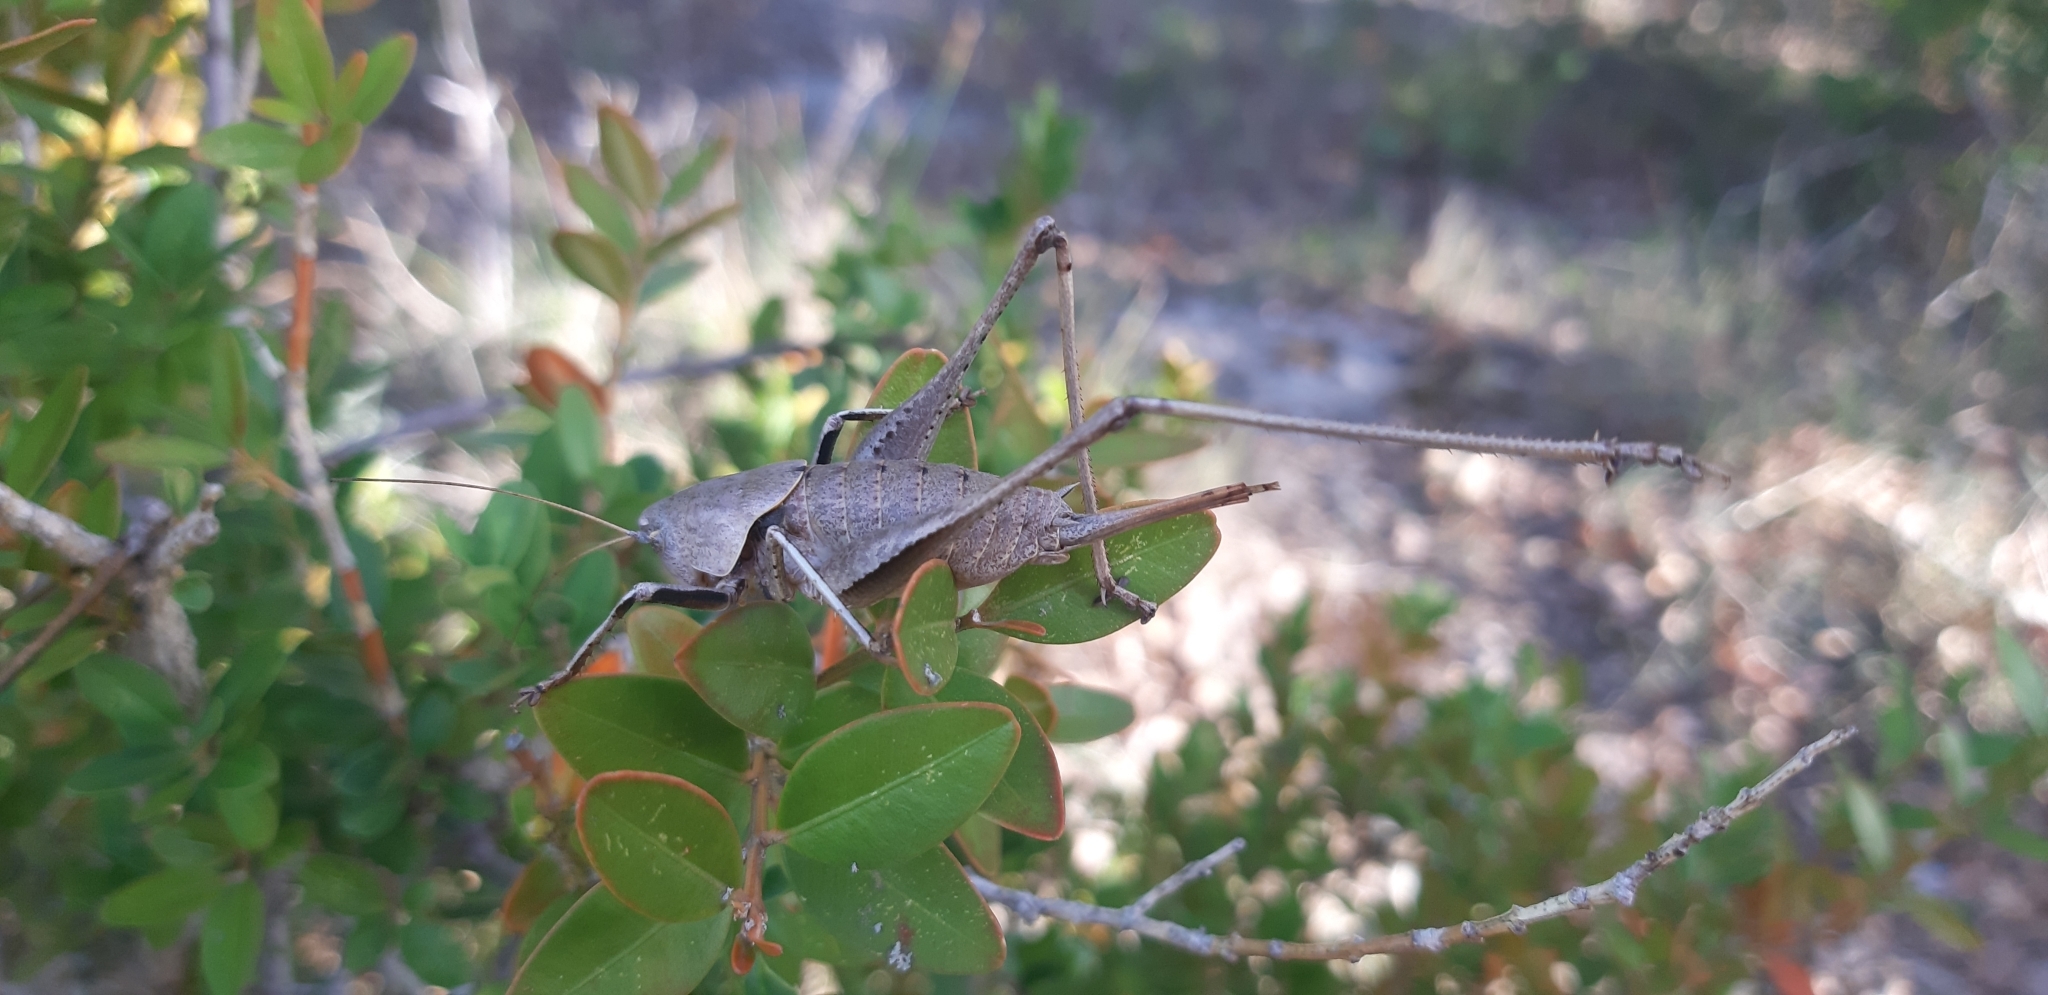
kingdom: Animalia
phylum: Arthropoda
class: Insecta
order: Orthoptera
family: Tettigoniidae
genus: Thyreonotus
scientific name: Thyreonotus corsicus
